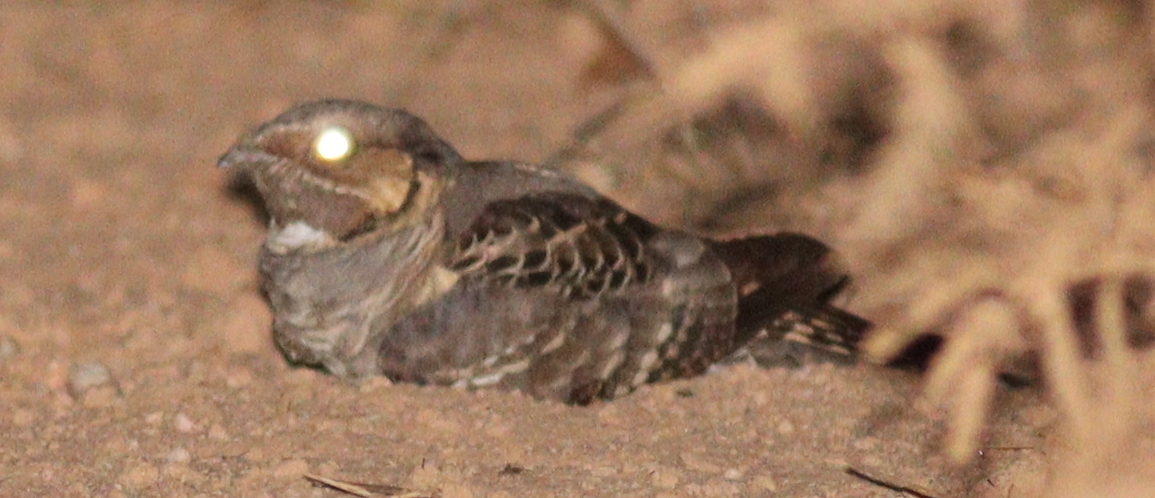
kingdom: Animalia
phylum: Chordata
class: Aves
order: Caprimulgiformes
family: Caprimulgidae
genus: Nyctidromus
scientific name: Nyctidromus albicollis
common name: Pauraque
